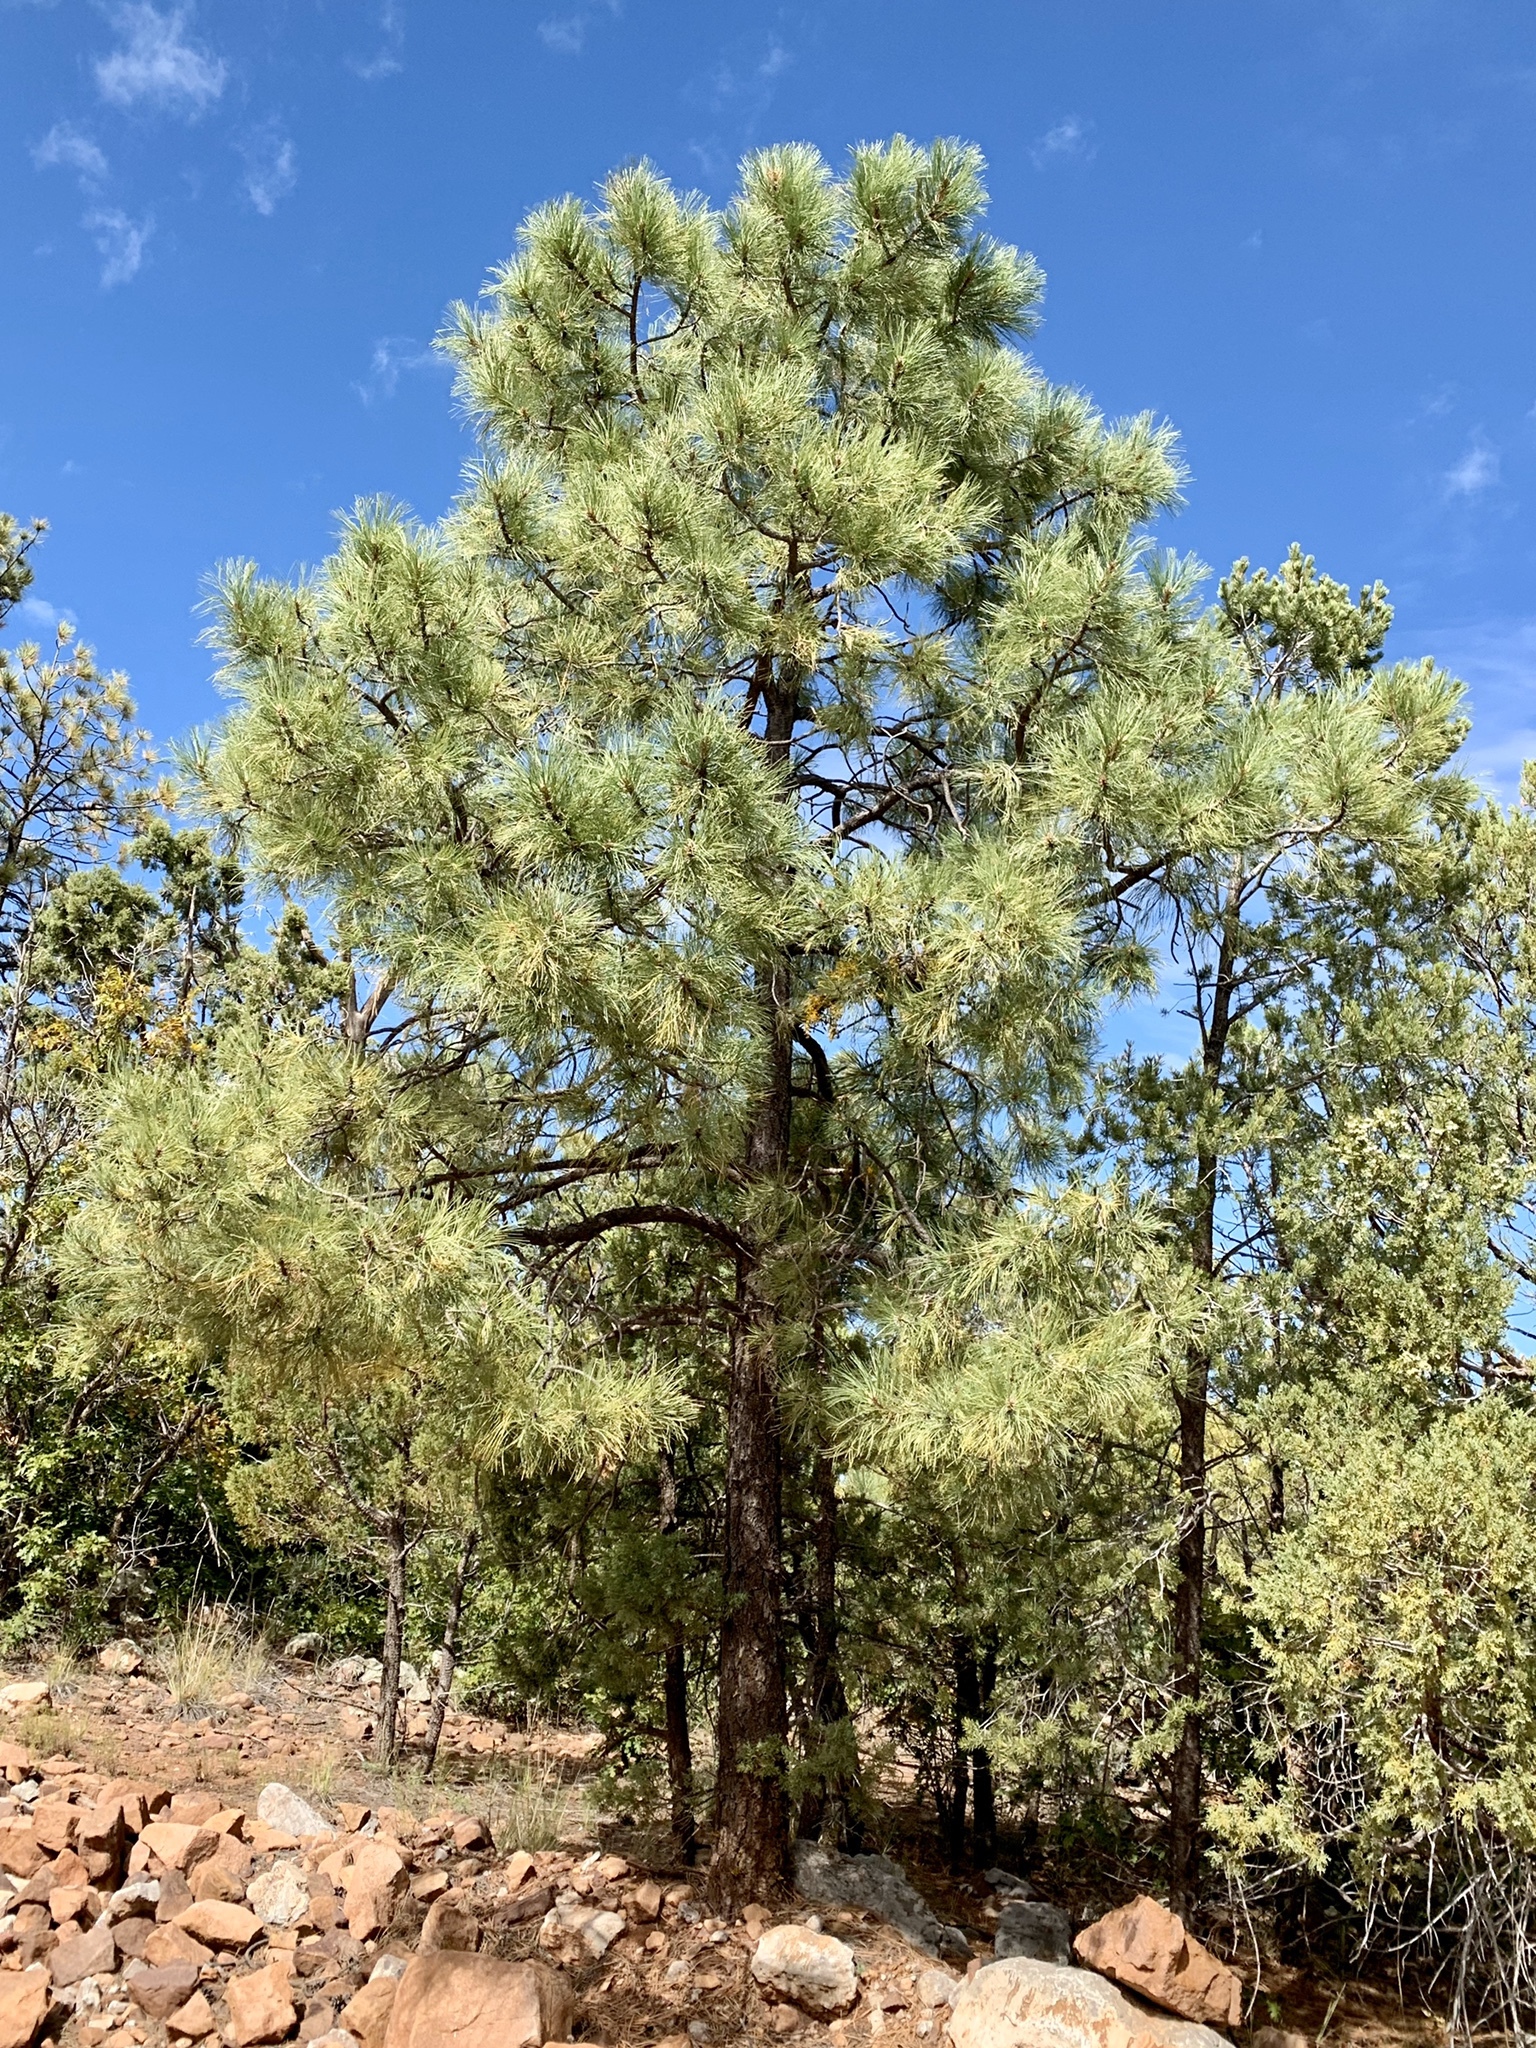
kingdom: Plantae
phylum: Tracheophyta
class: Pinopsida
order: Pinales
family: Pinaceae
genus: Pinus
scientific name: Pinus ponderosa
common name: Western yellow-pine
